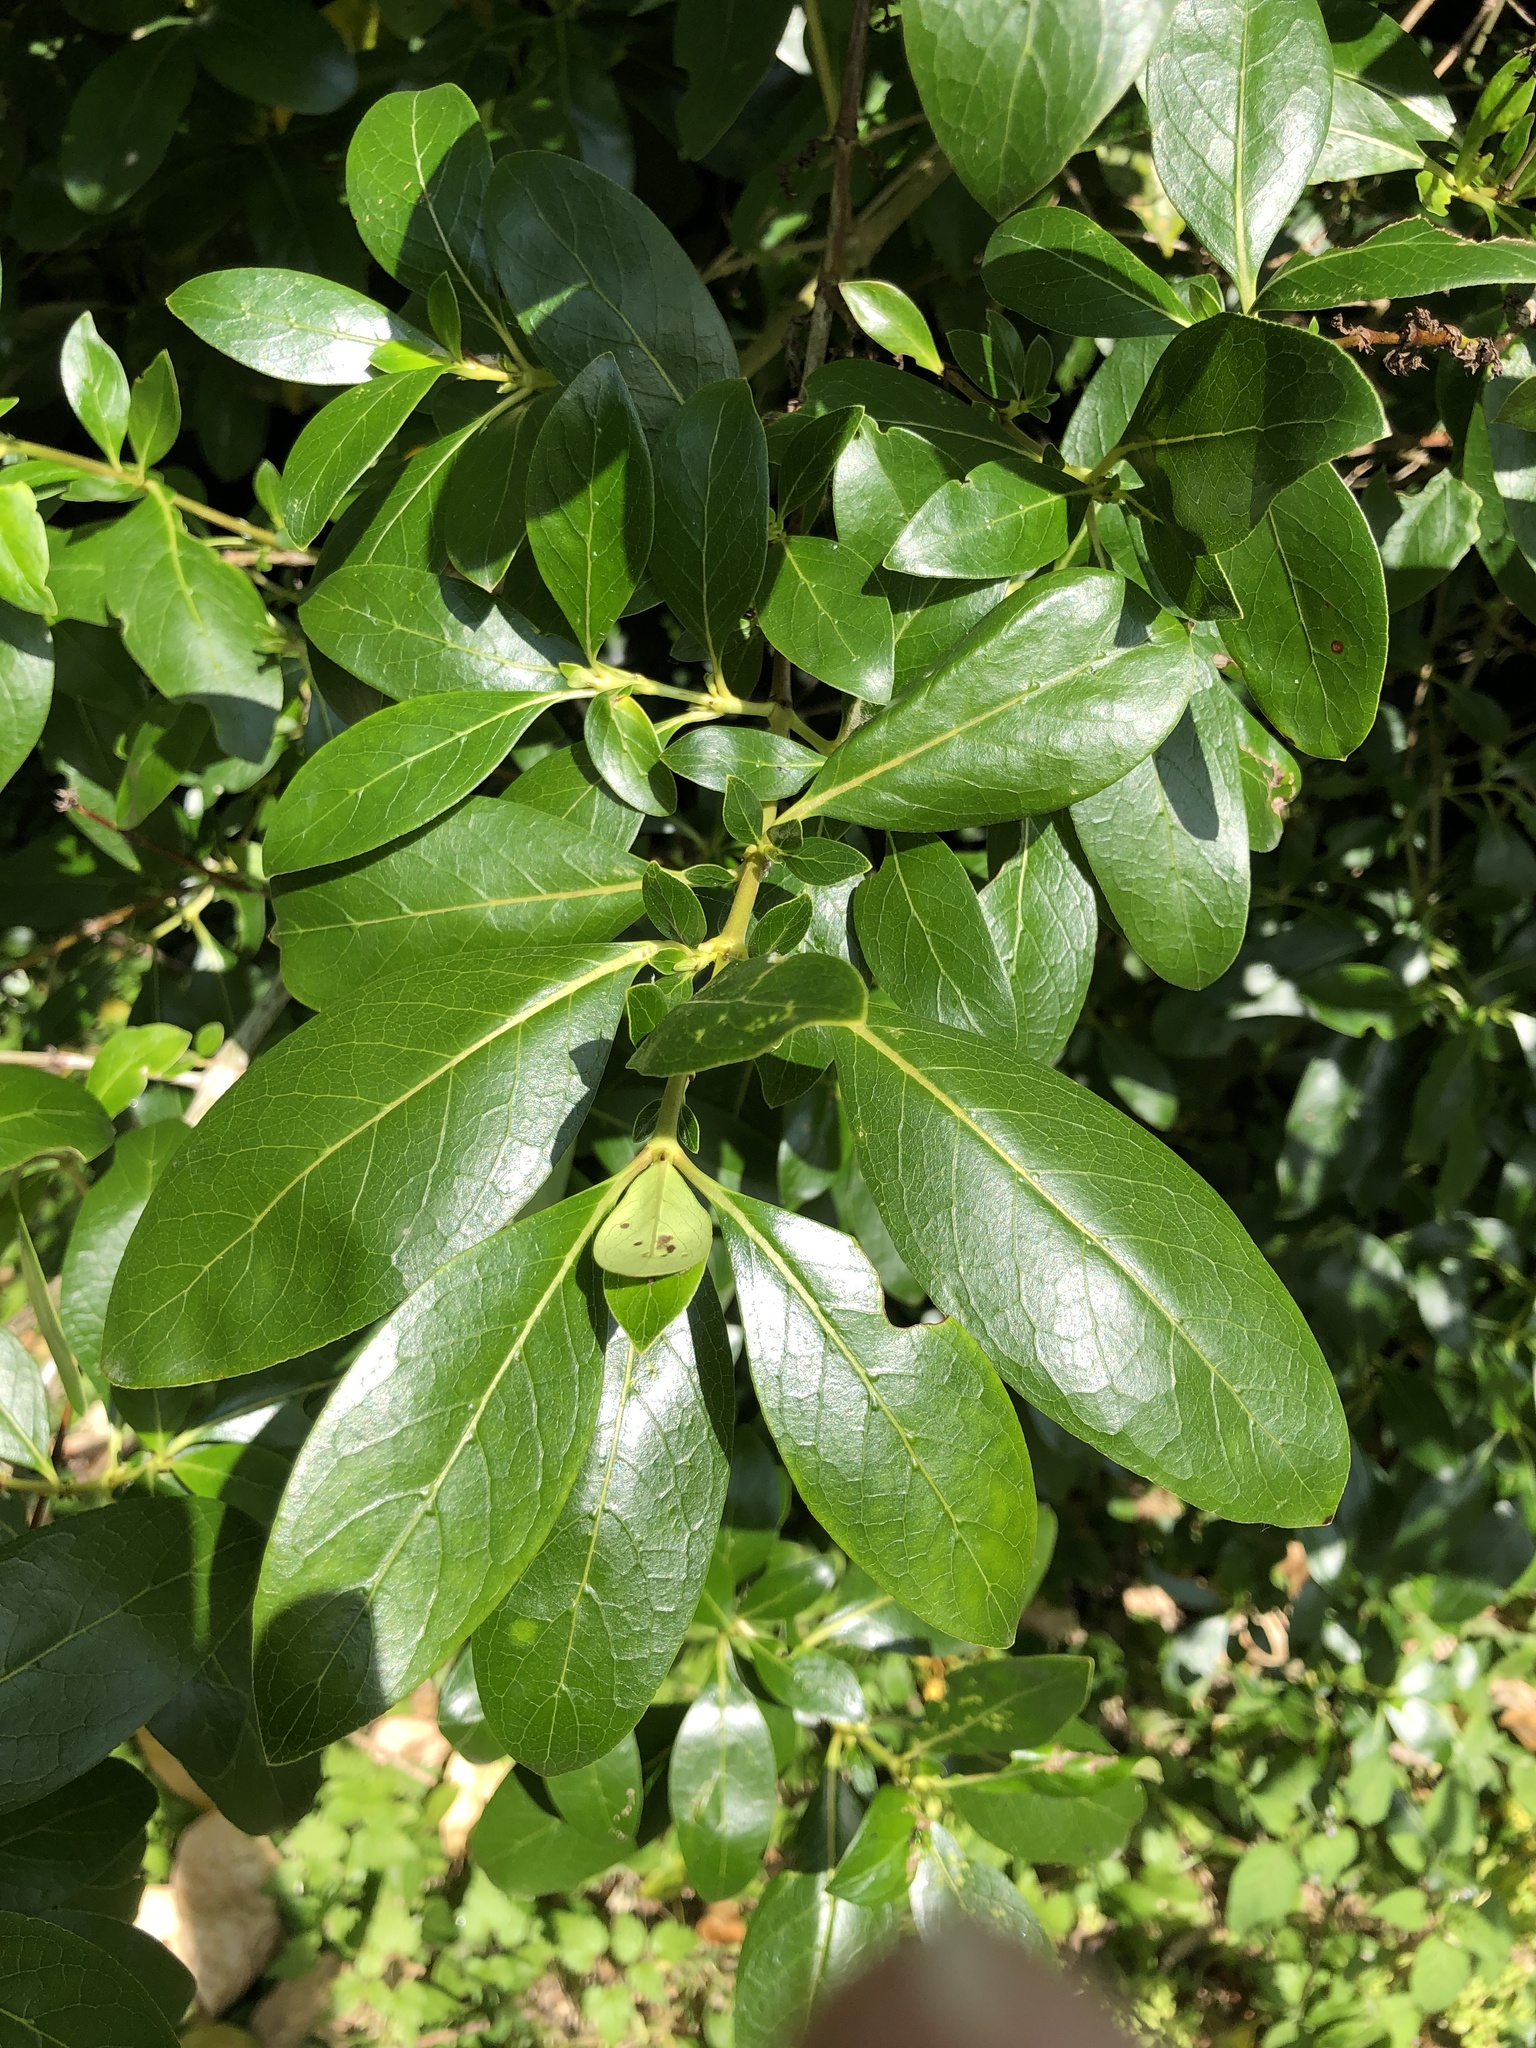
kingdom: Plantae
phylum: Tracheophyta
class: Magnoliopsida
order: Gentianales
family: Rubiaceae
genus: Coprosma
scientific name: Coprosma robusta
